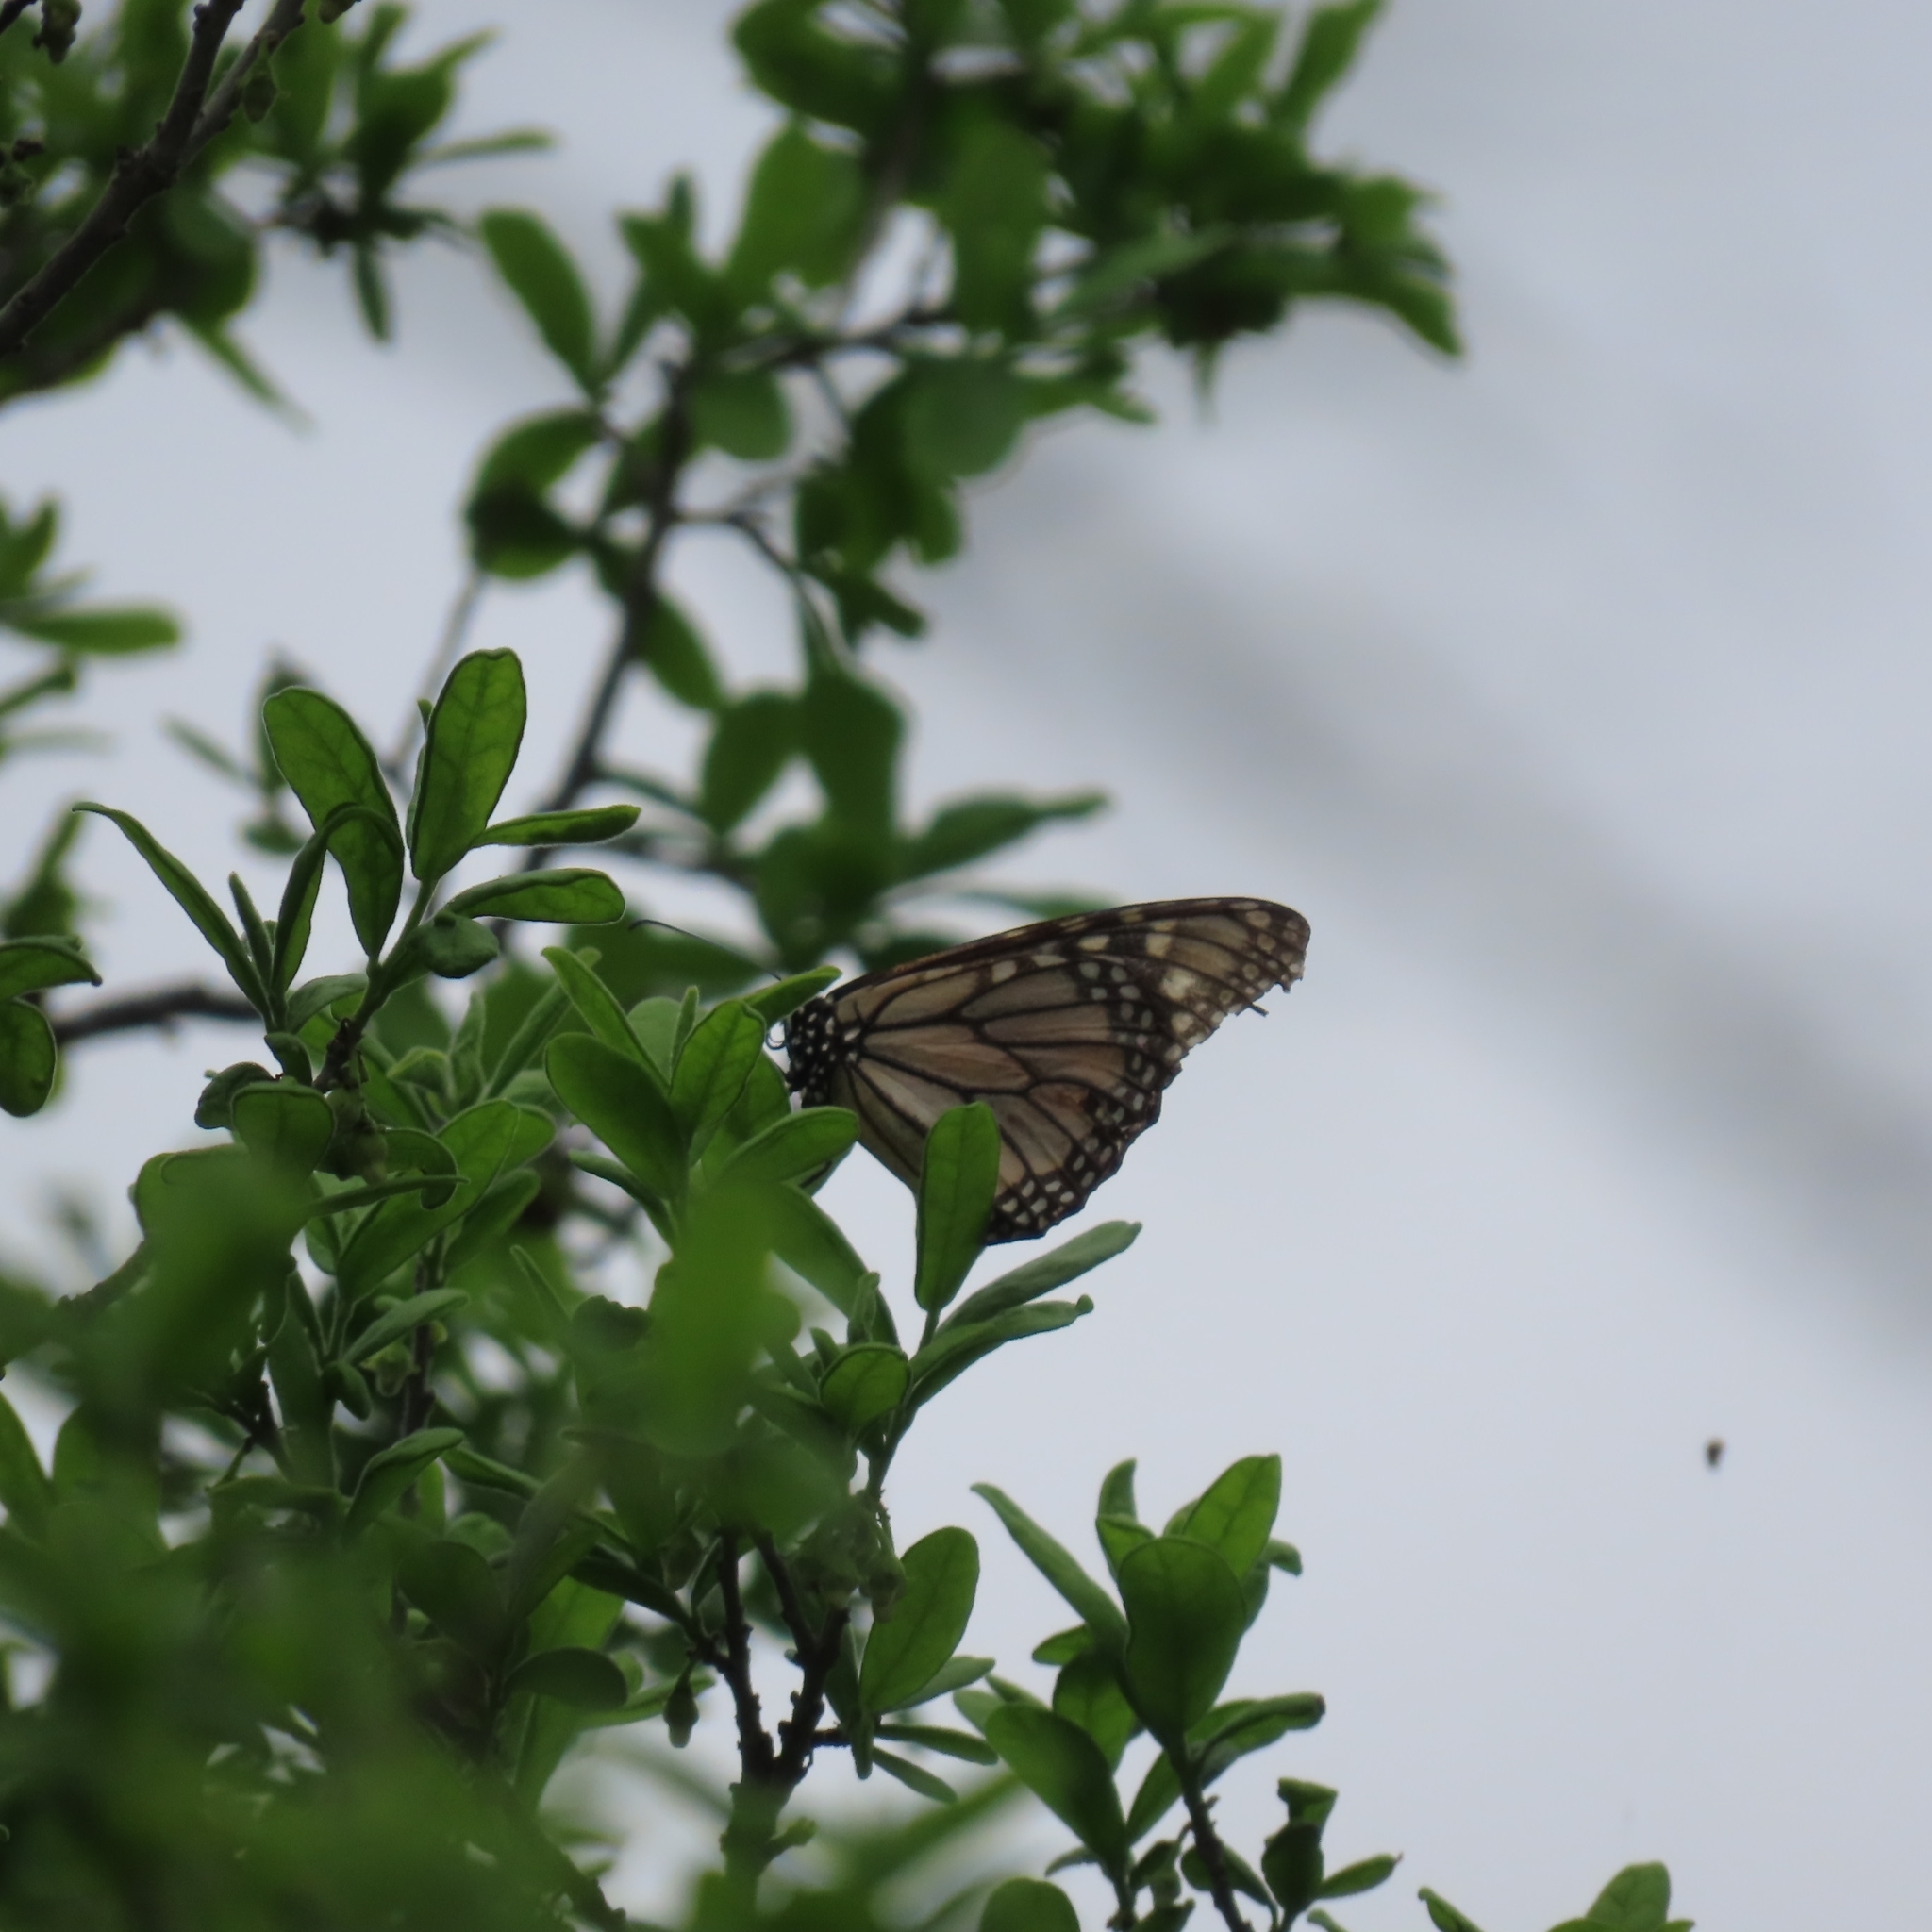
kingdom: Animalia
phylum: Arthropoda
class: Insecta
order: Lepidoptera
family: Nymphalidae
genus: Danaus
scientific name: Danaus plexippus
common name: Monarch
